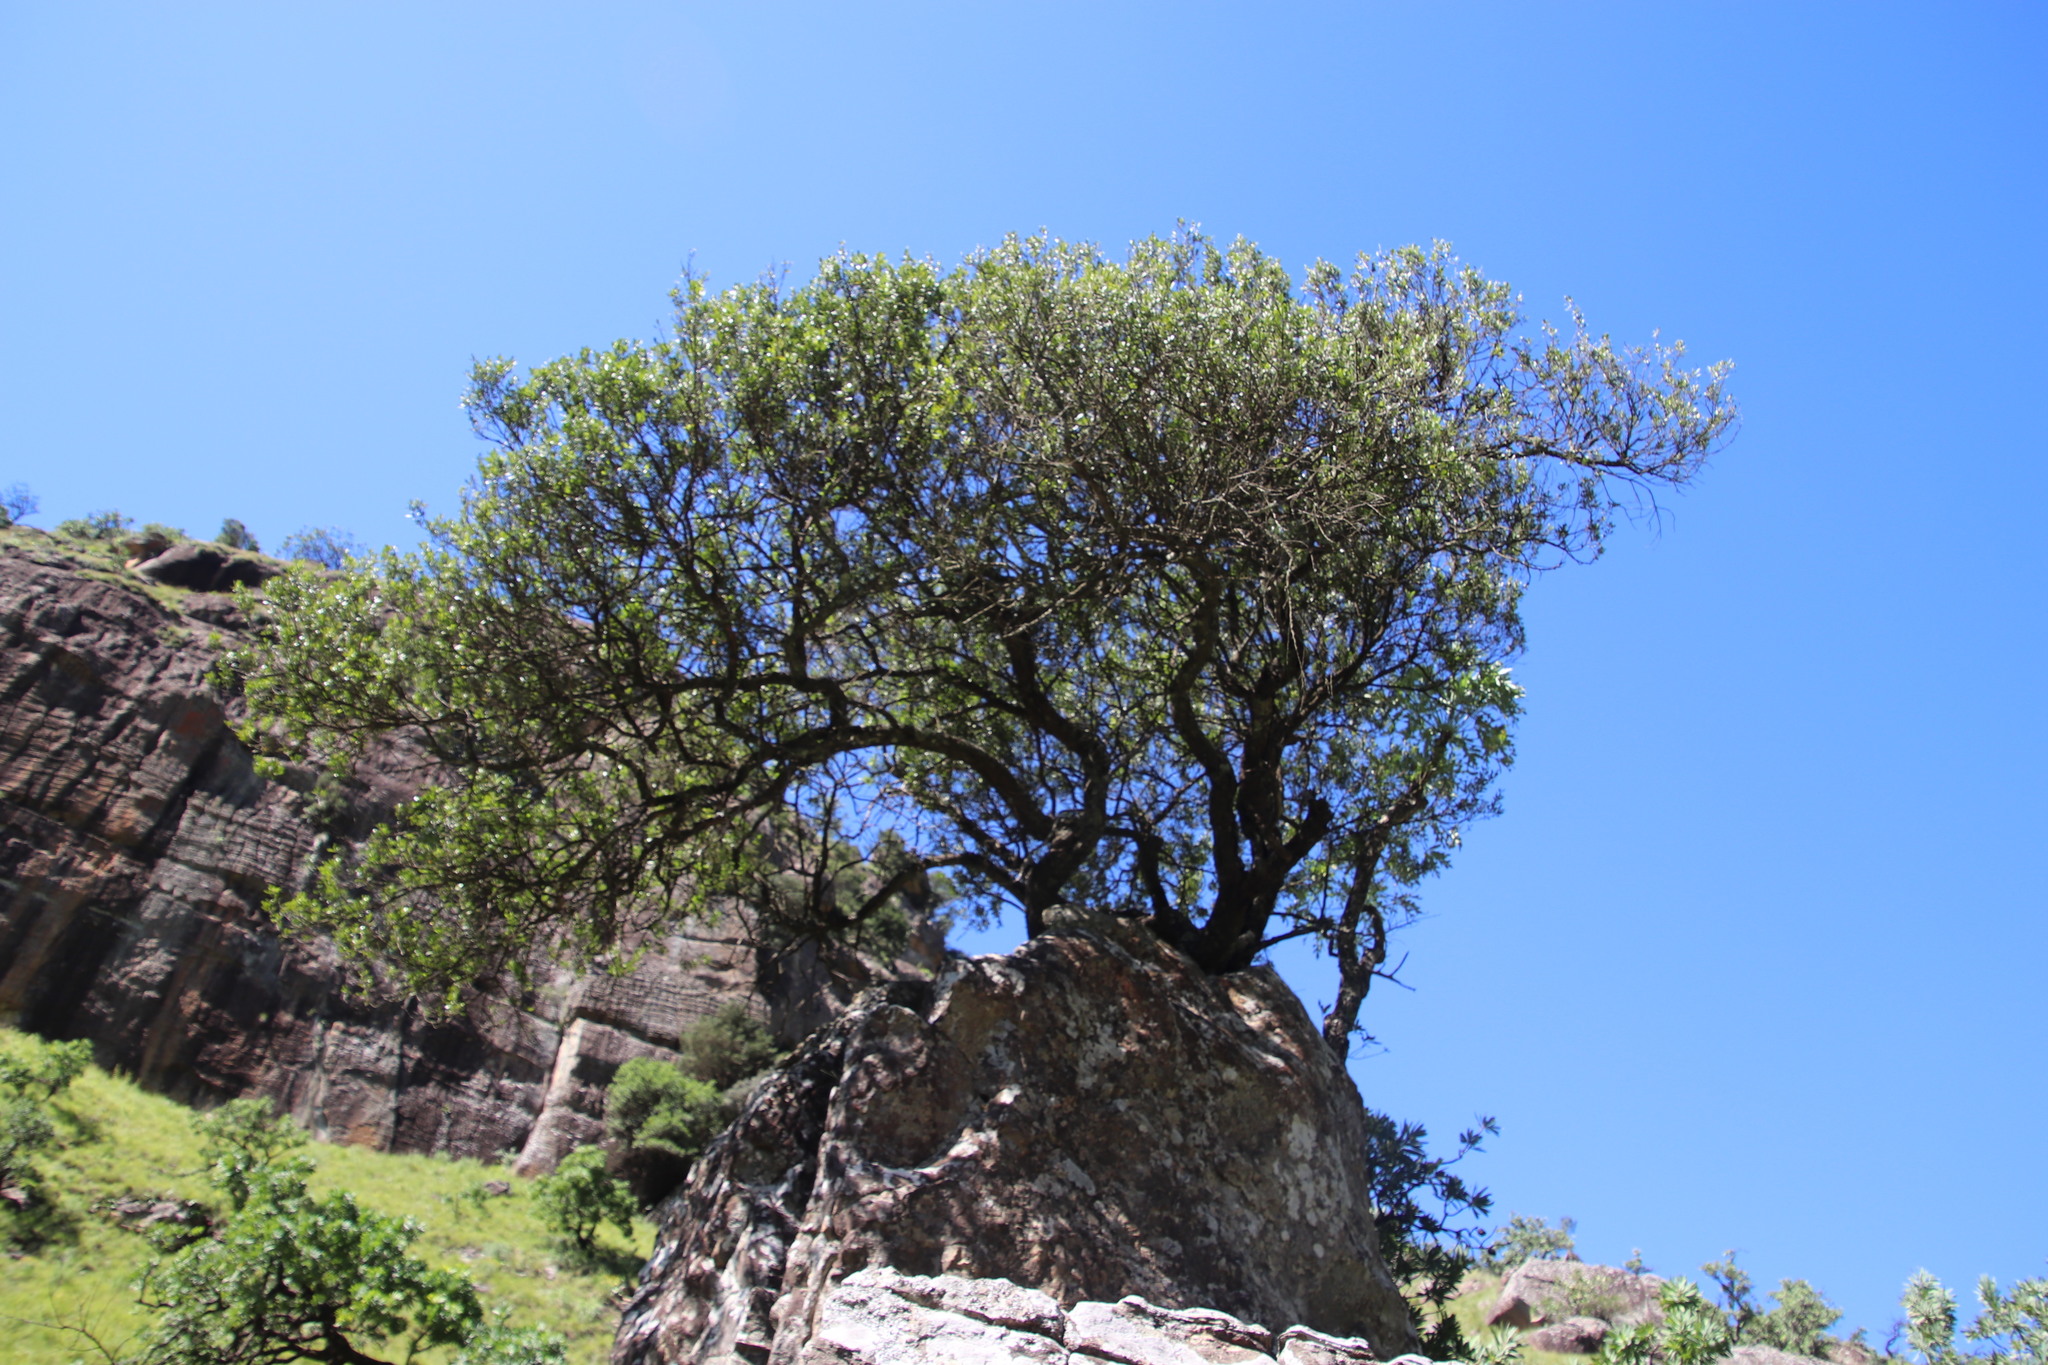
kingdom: Plantae
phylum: Tracheophyta
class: Magnoliopsida
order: Sapindales
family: Anacardiaceae
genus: Searsia
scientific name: Searsia lucida
